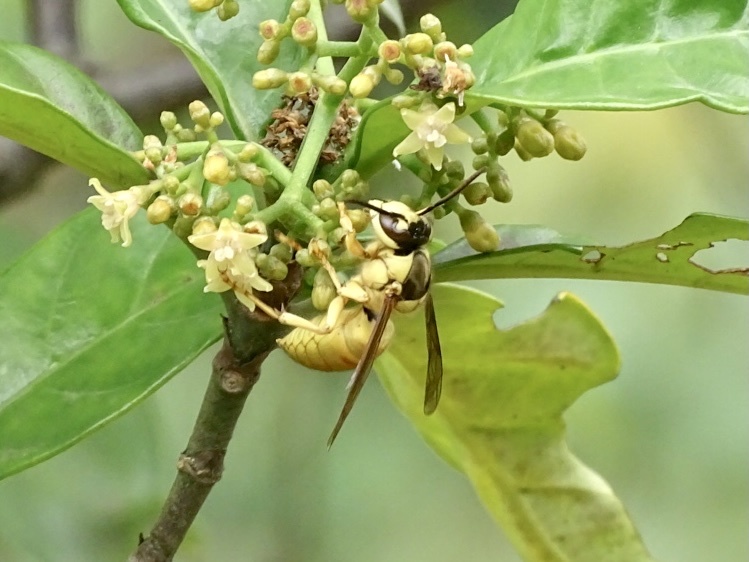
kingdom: Animalia
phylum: Arthropoda
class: Insecta
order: Hymenoptera
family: Vespidae
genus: Vespa
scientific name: Vespa bicolor
